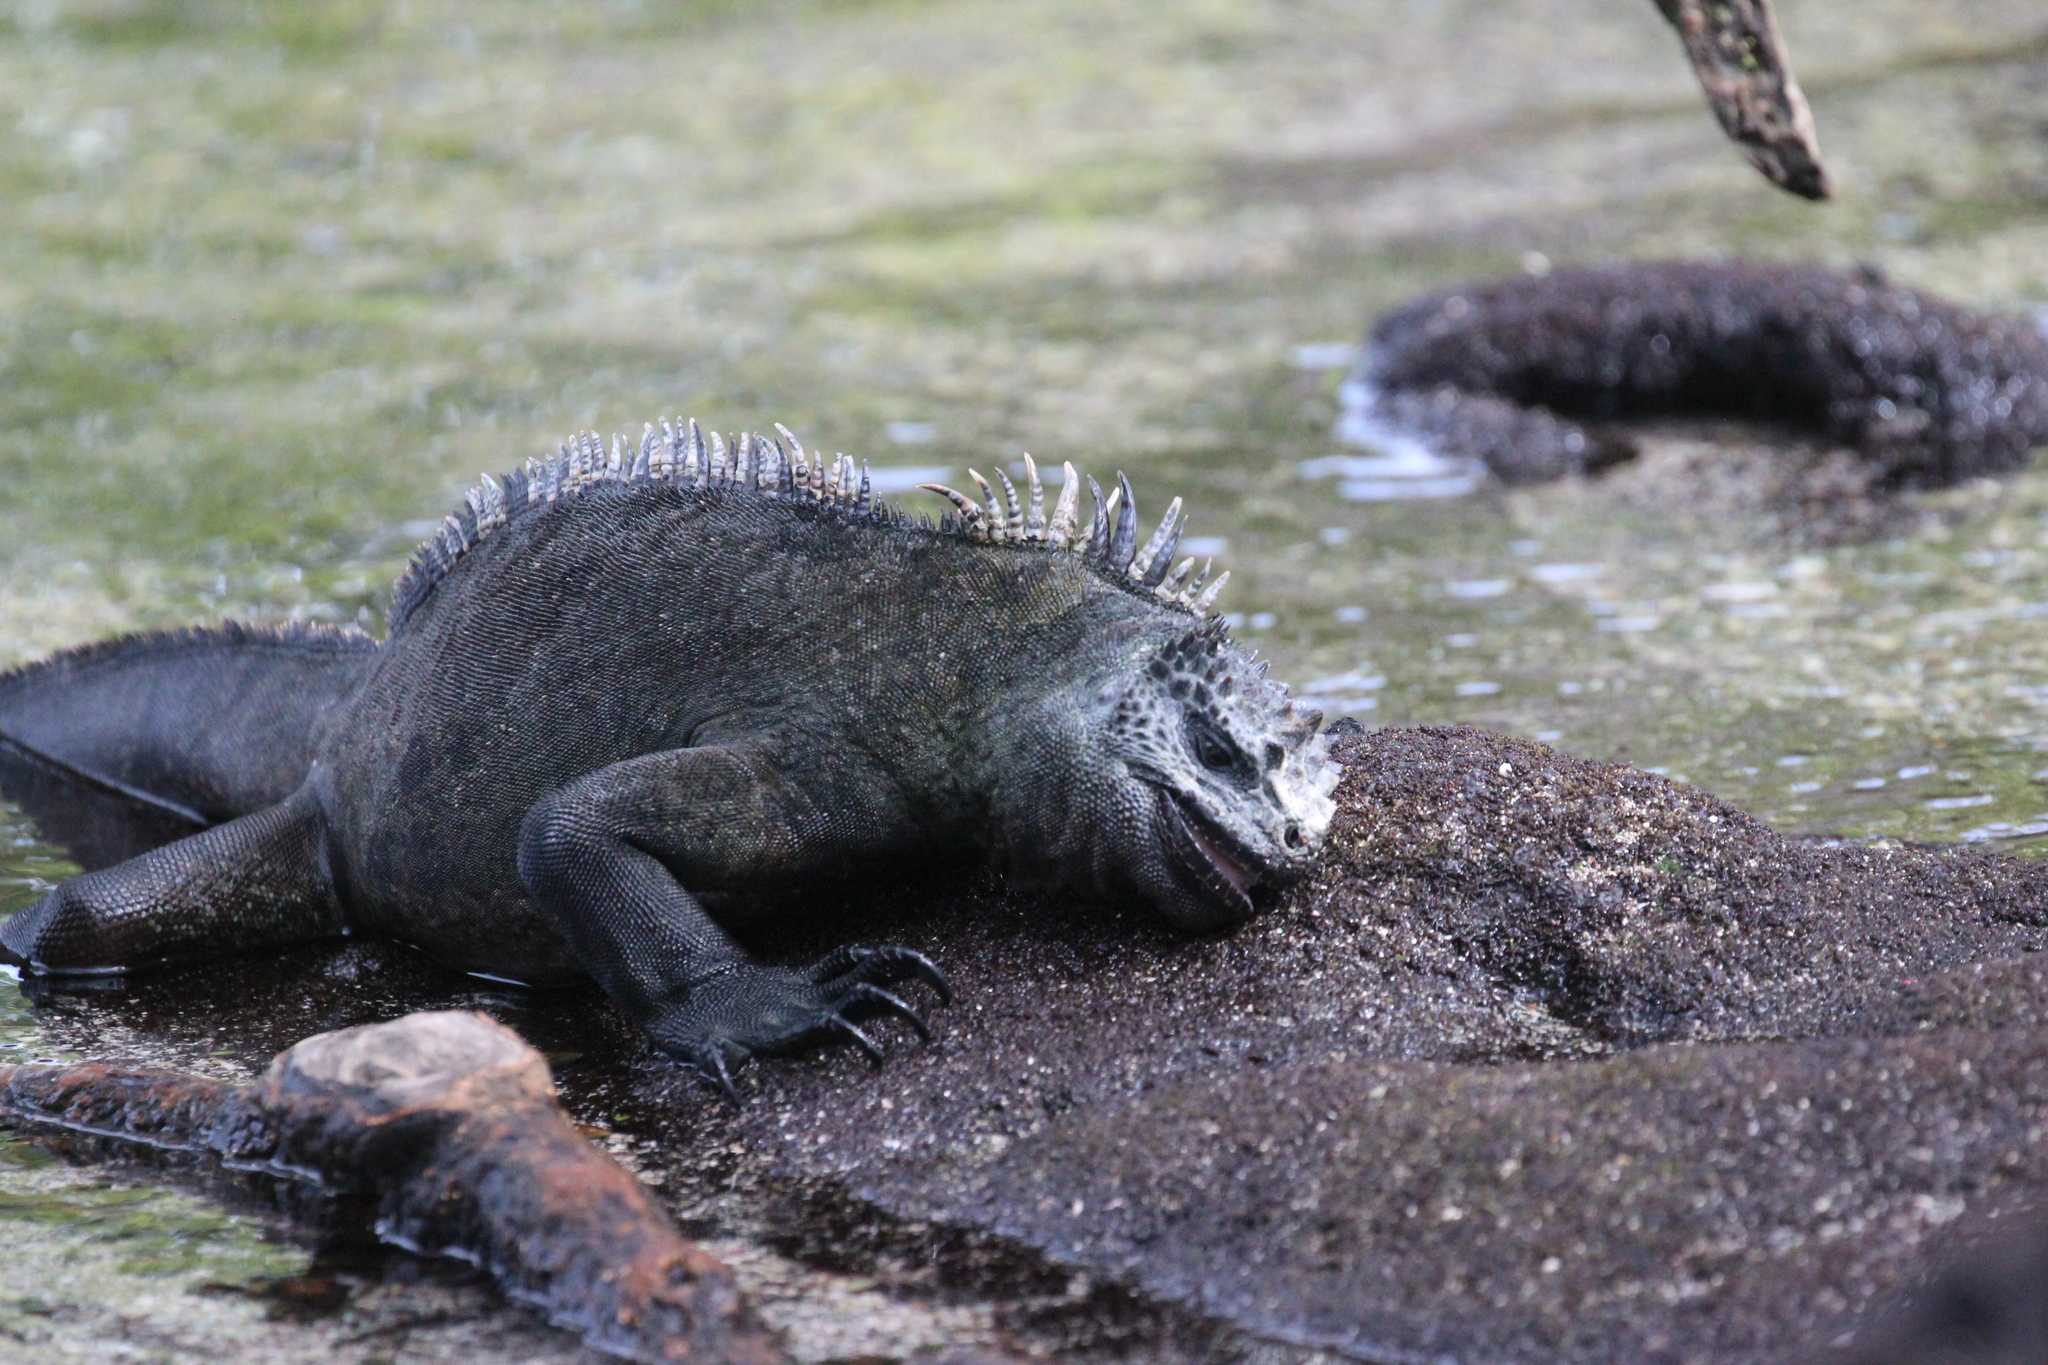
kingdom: Animalia
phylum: Chordata
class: Squamata
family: Iguanidae
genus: Amblyrhynchus
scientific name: Amblyrhynchus cristatus
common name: Marine iguana
